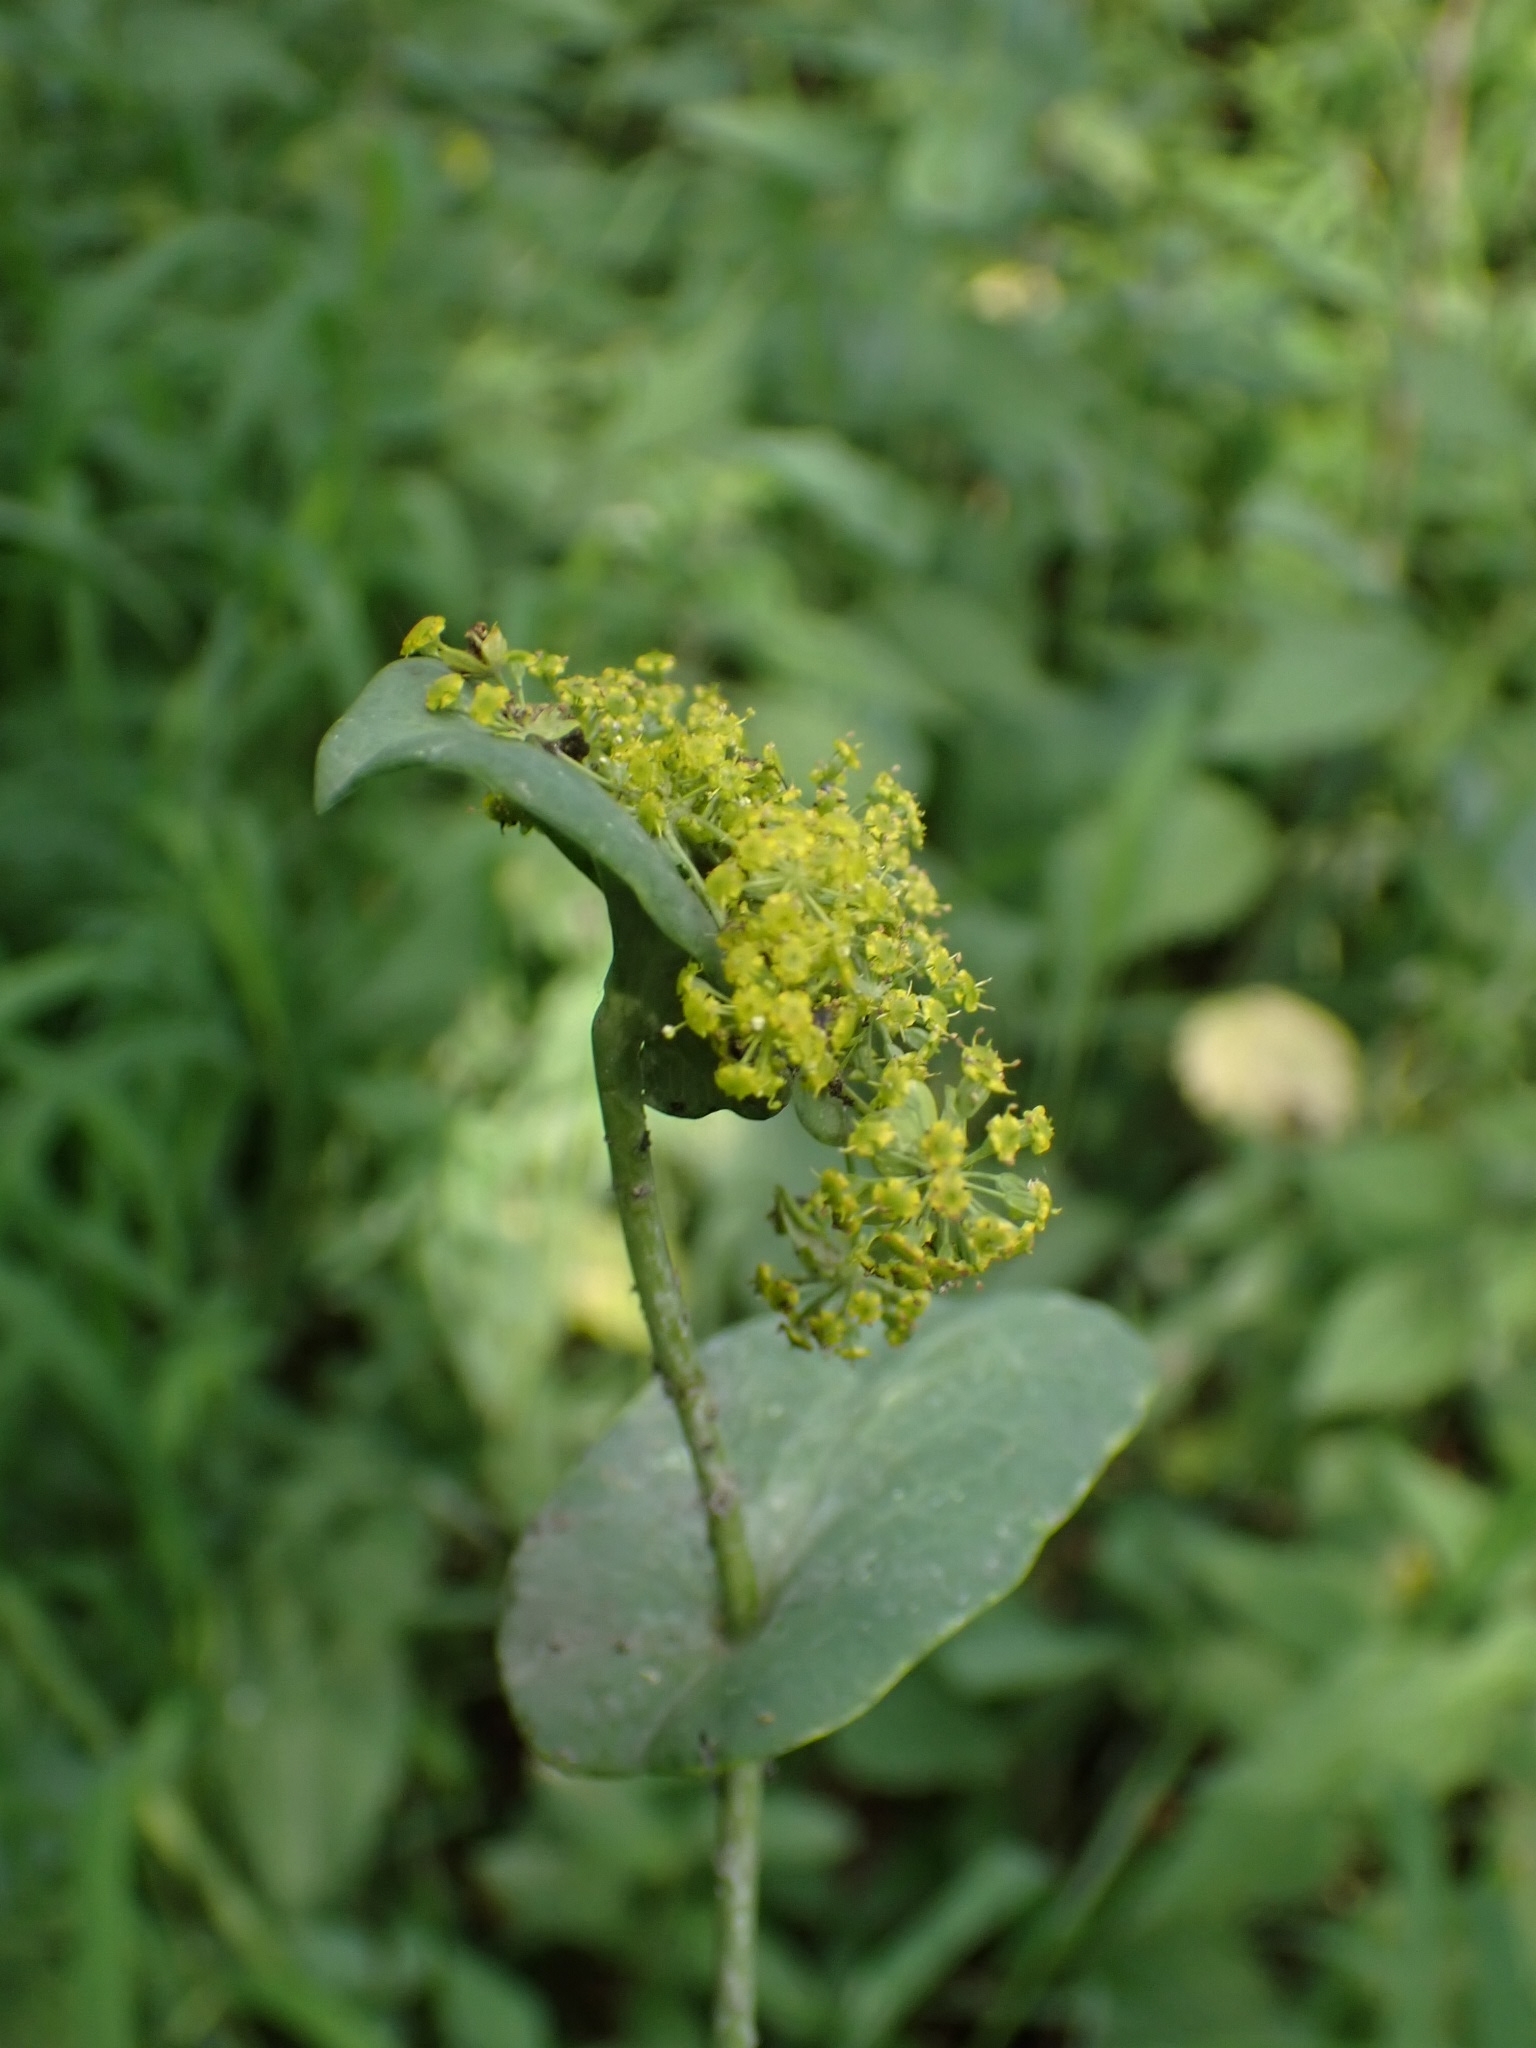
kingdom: Plantae
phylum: Tracheophyta
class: Magnoliopsida
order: Apiales
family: Apiaceae
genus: Bupleurum
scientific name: Bupleurum aureum
